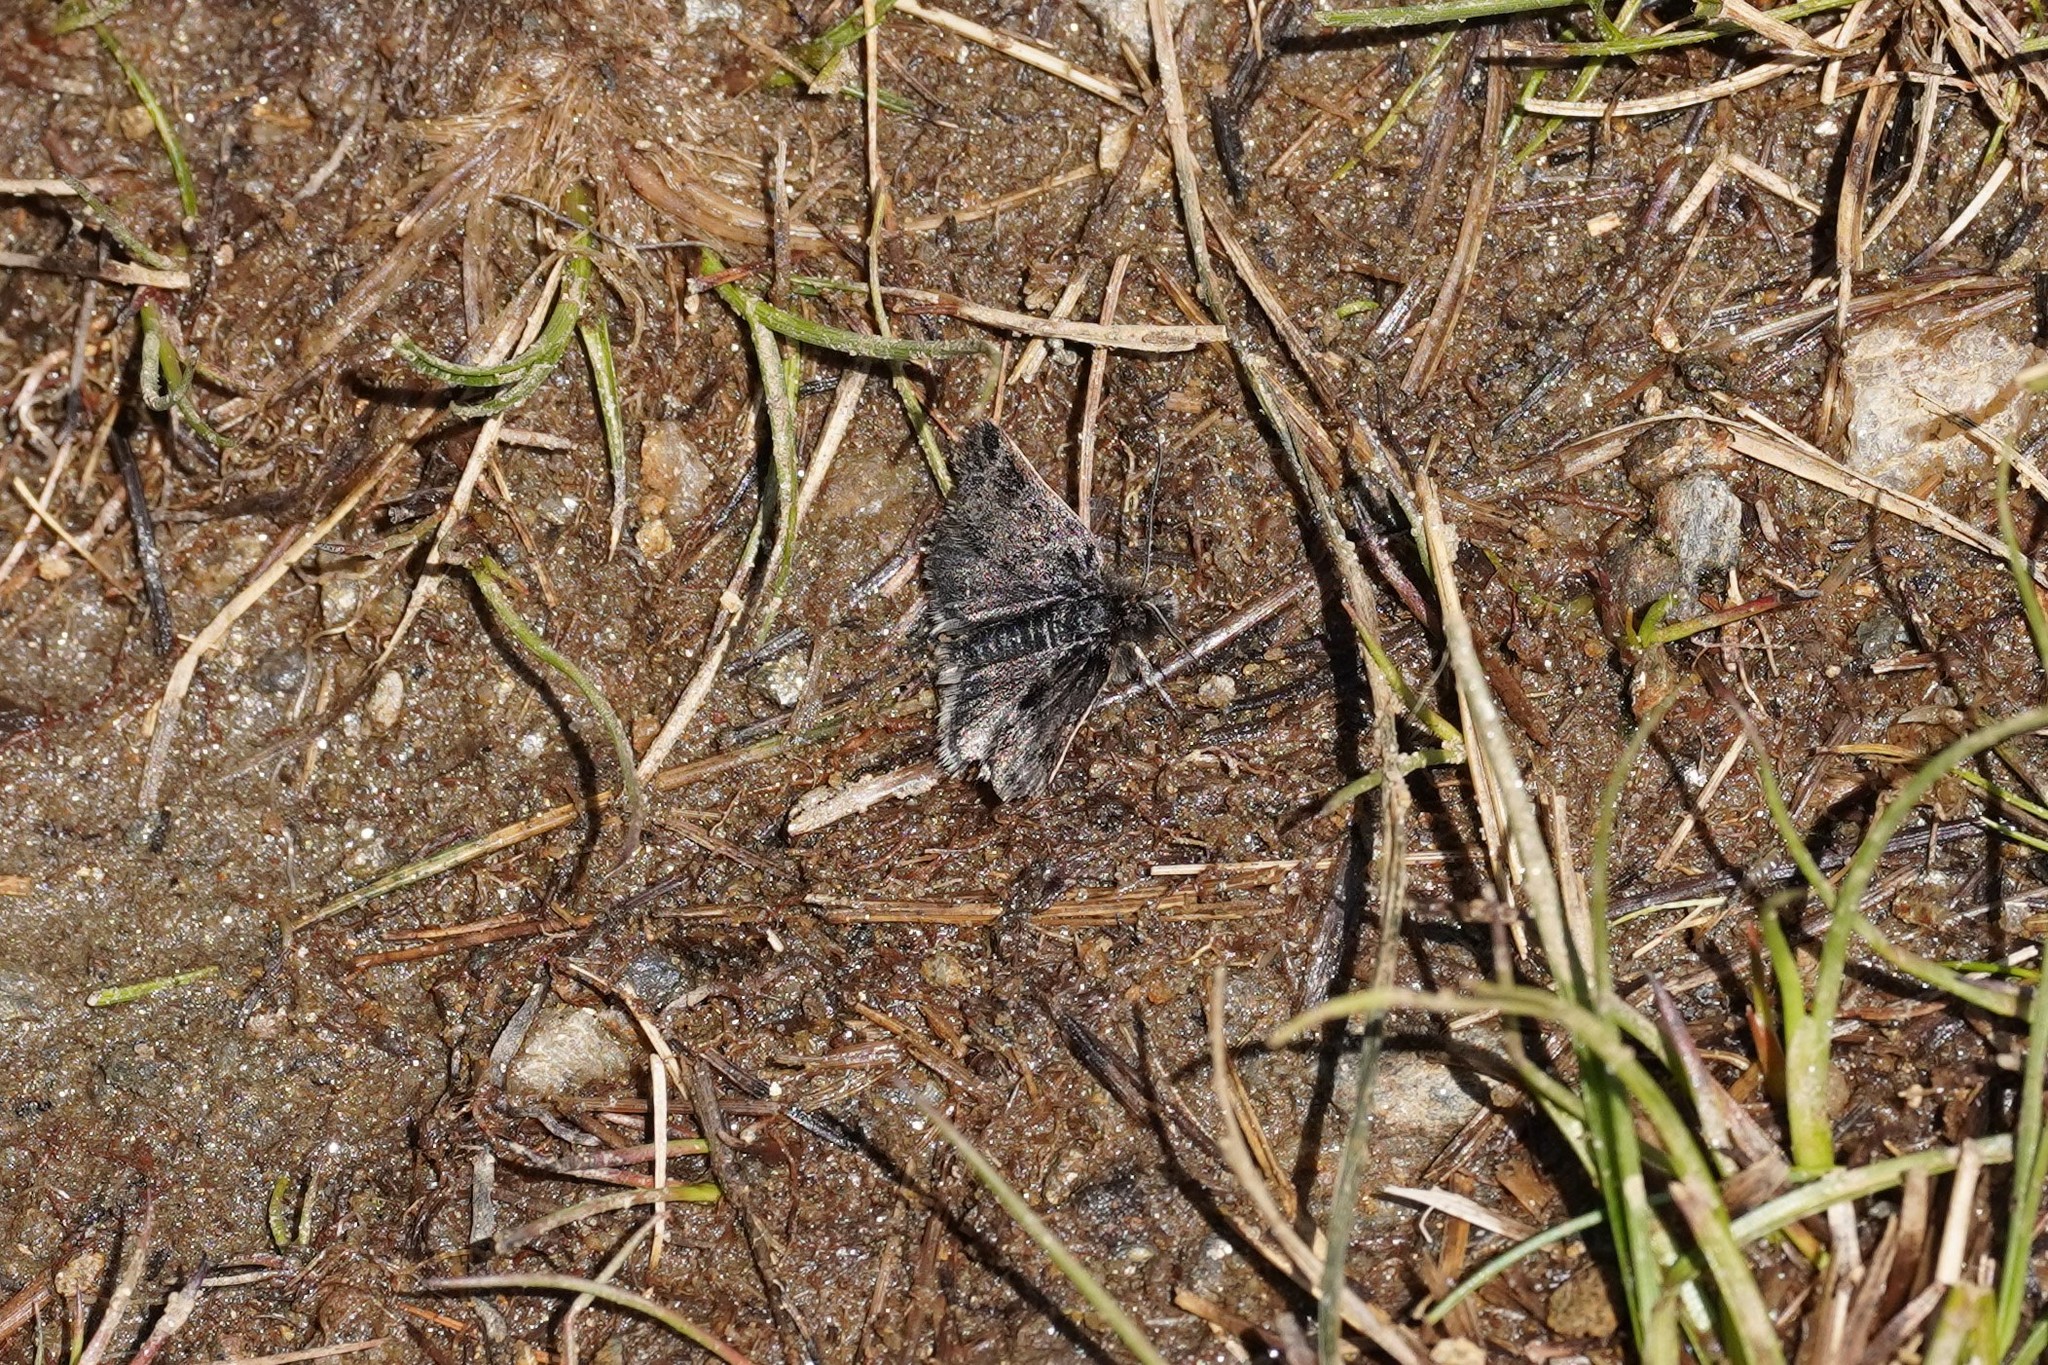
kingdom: Animalia
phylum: Arthropoda
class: Insecta
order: Lepidoptera
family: Crambidae
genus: Metaxmeste
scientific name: Metaxmeste phrygialis
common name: Black mountain pearl
